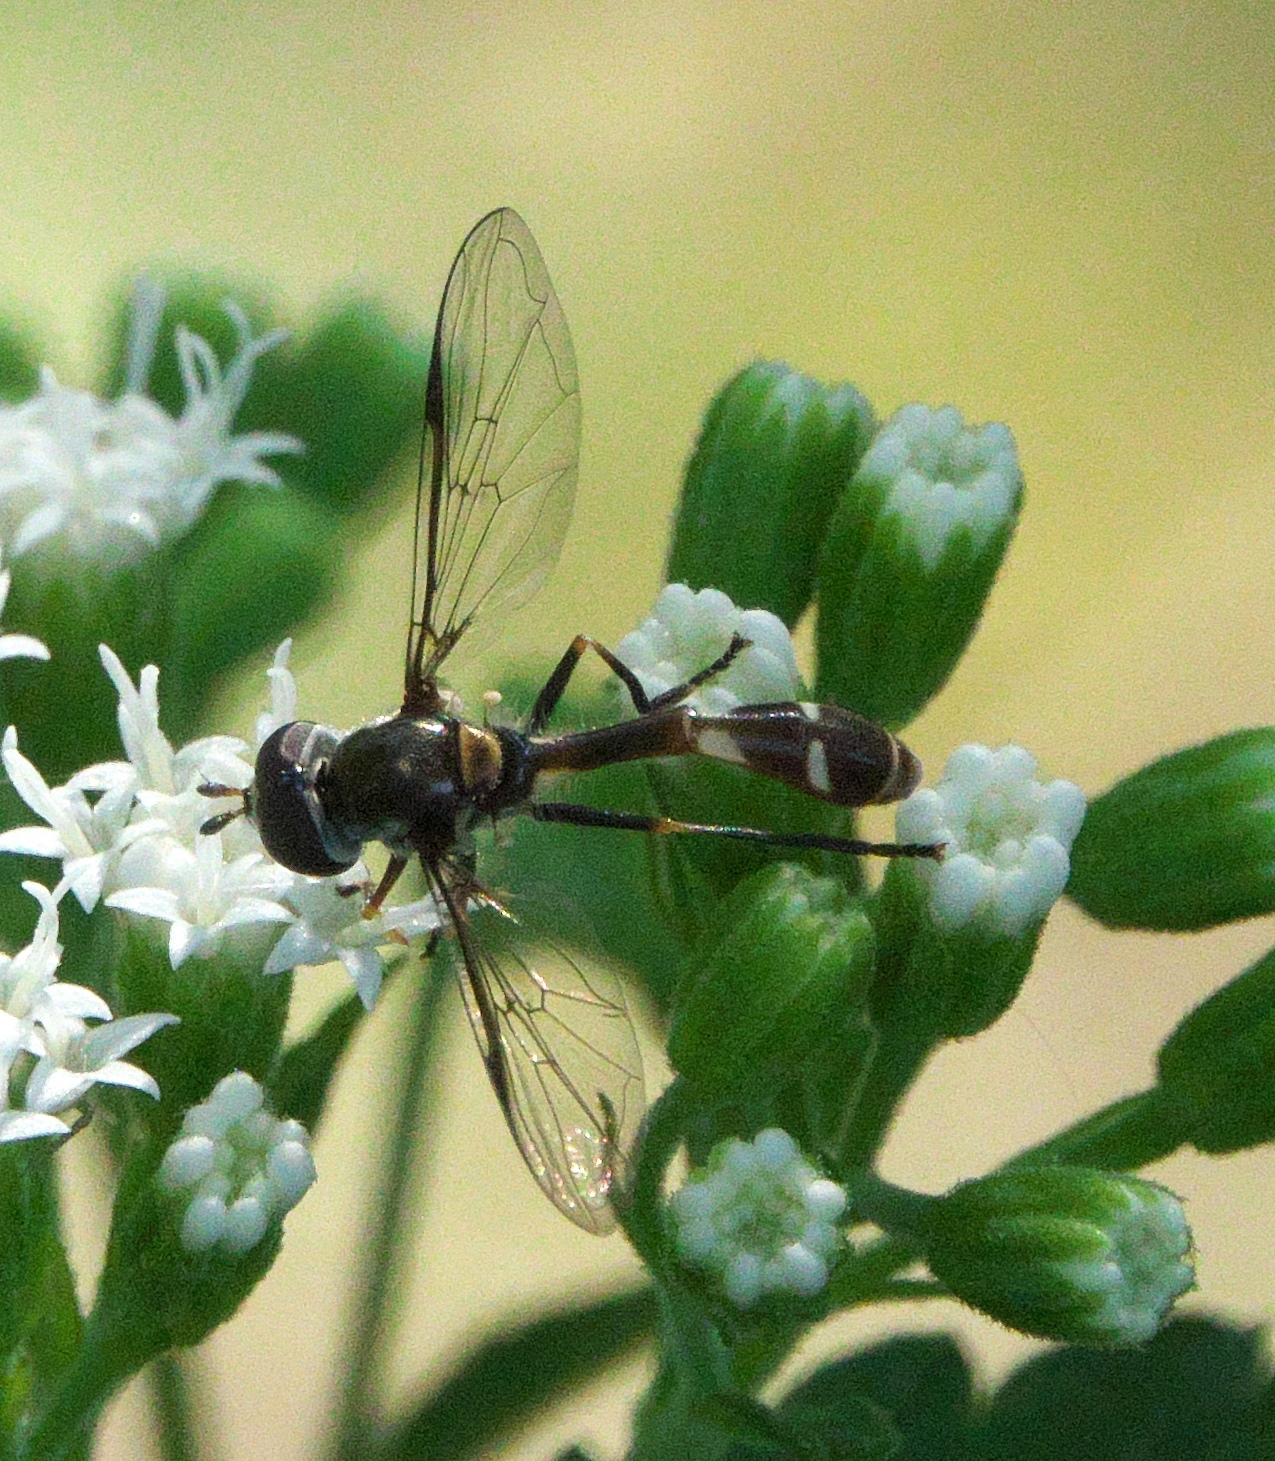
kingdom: Animalia
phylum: Arthropoda
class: Insecta
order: Diptera
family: Syrphidae
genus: Dioprosopa
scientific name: Dioprosopa clavatus
